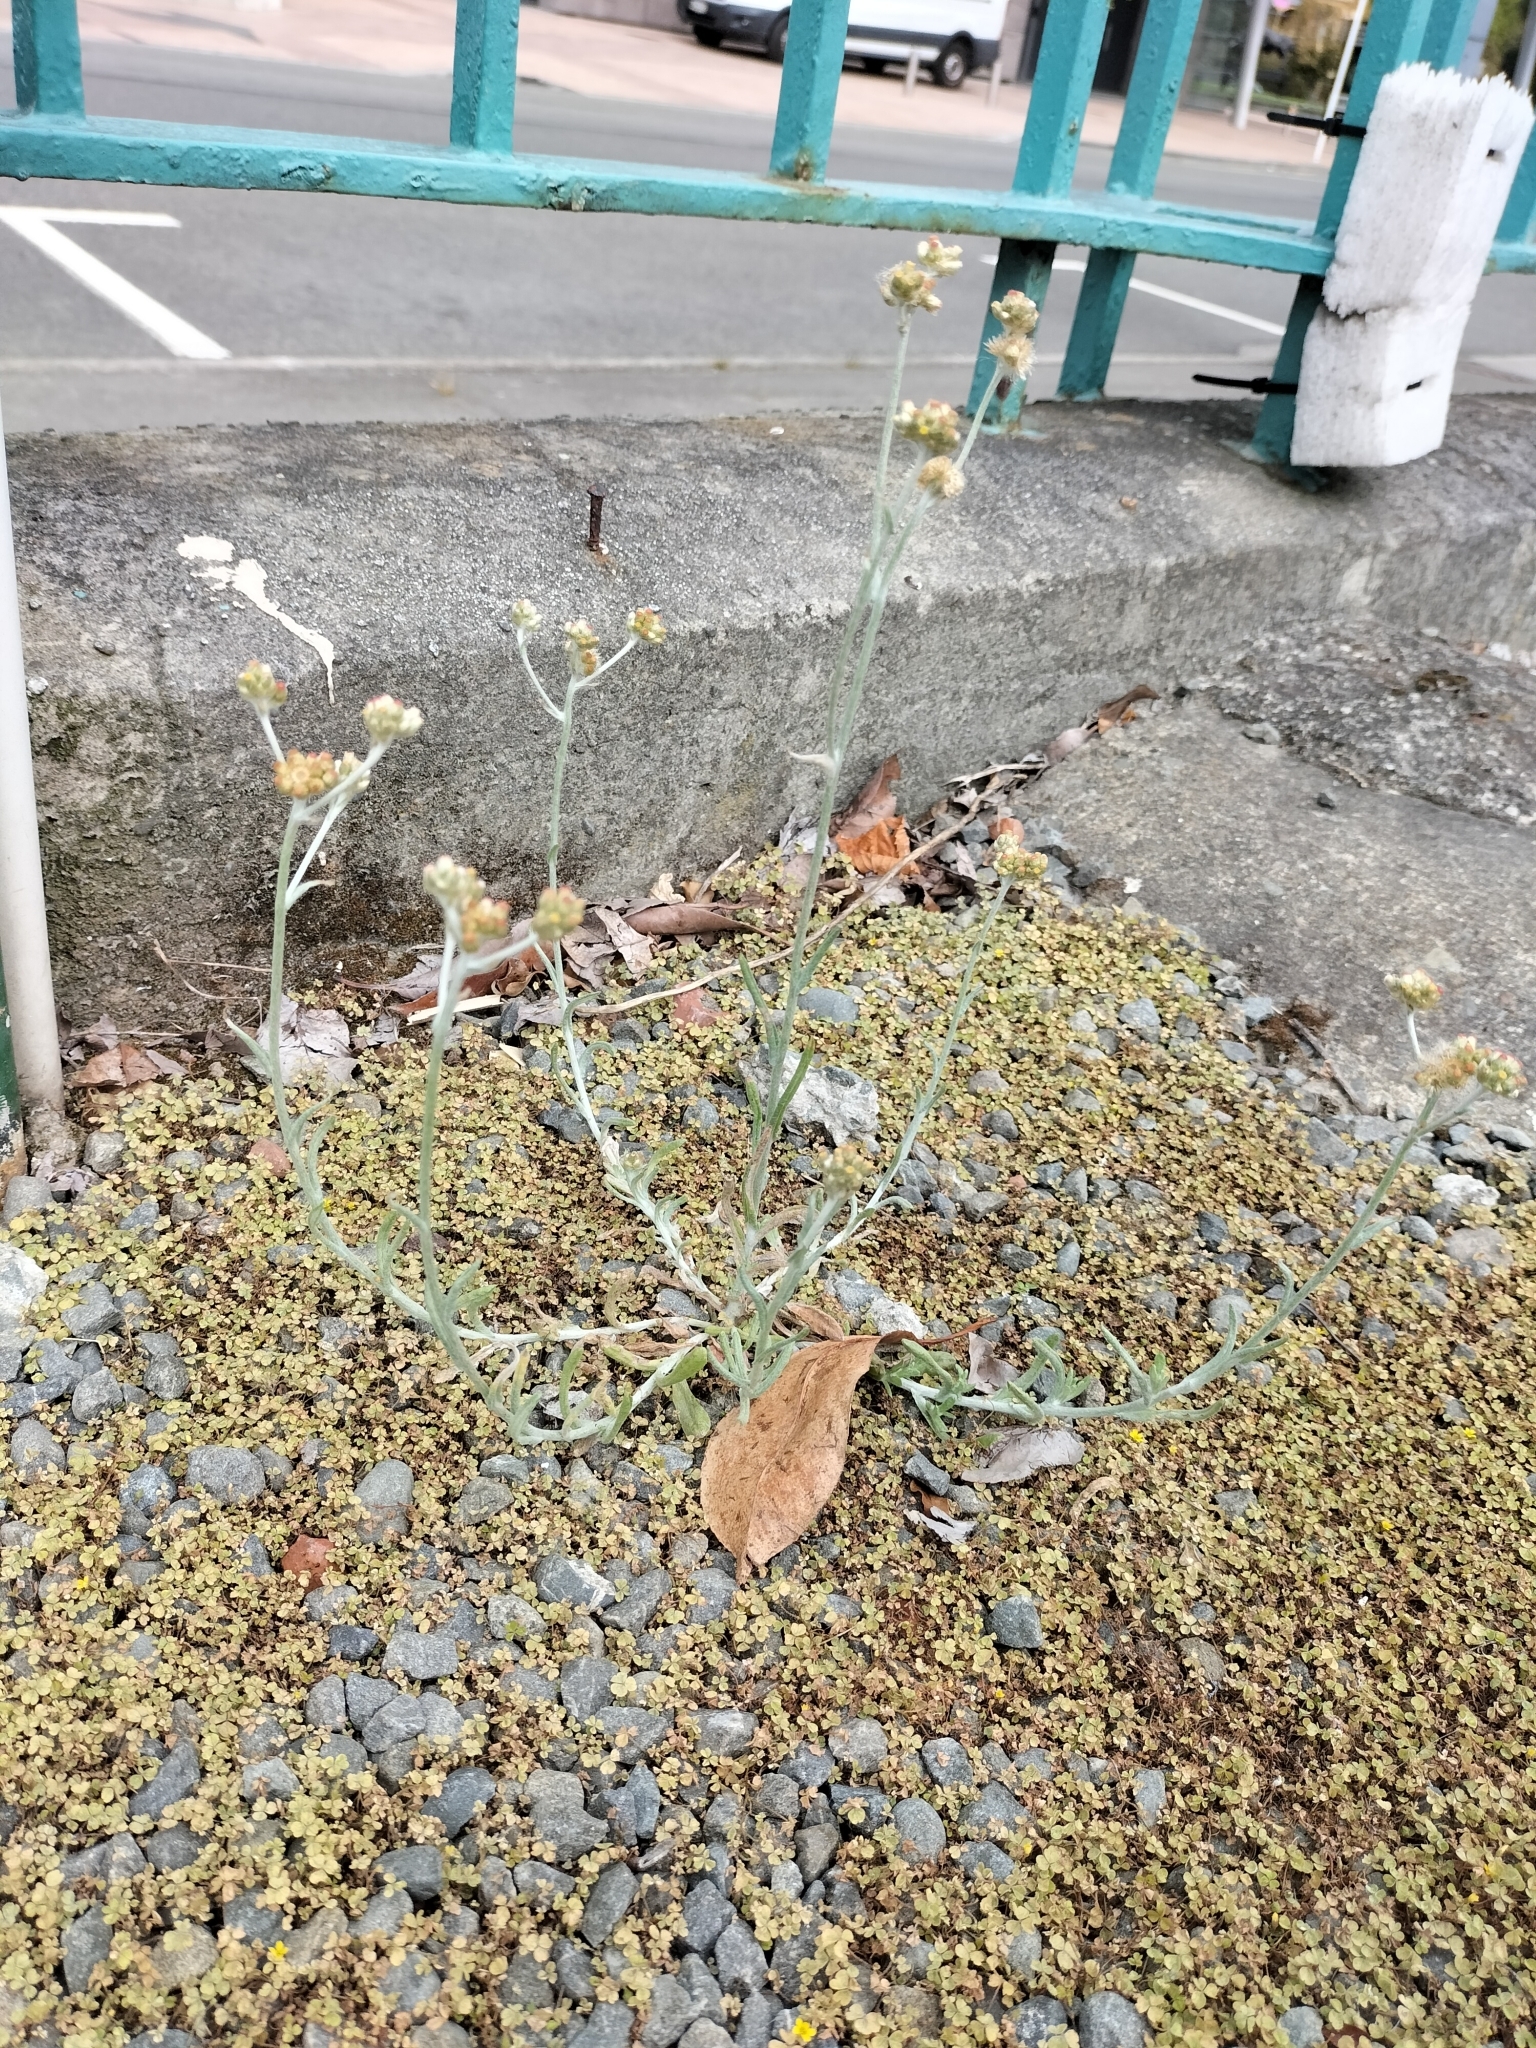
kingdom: Plantae
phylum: Tracheophyta
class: Magnoliopsida
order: Asterales
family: Asteraceae
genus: Helichrysum
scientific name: Helichrysum luteoalbum
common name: Daisy
